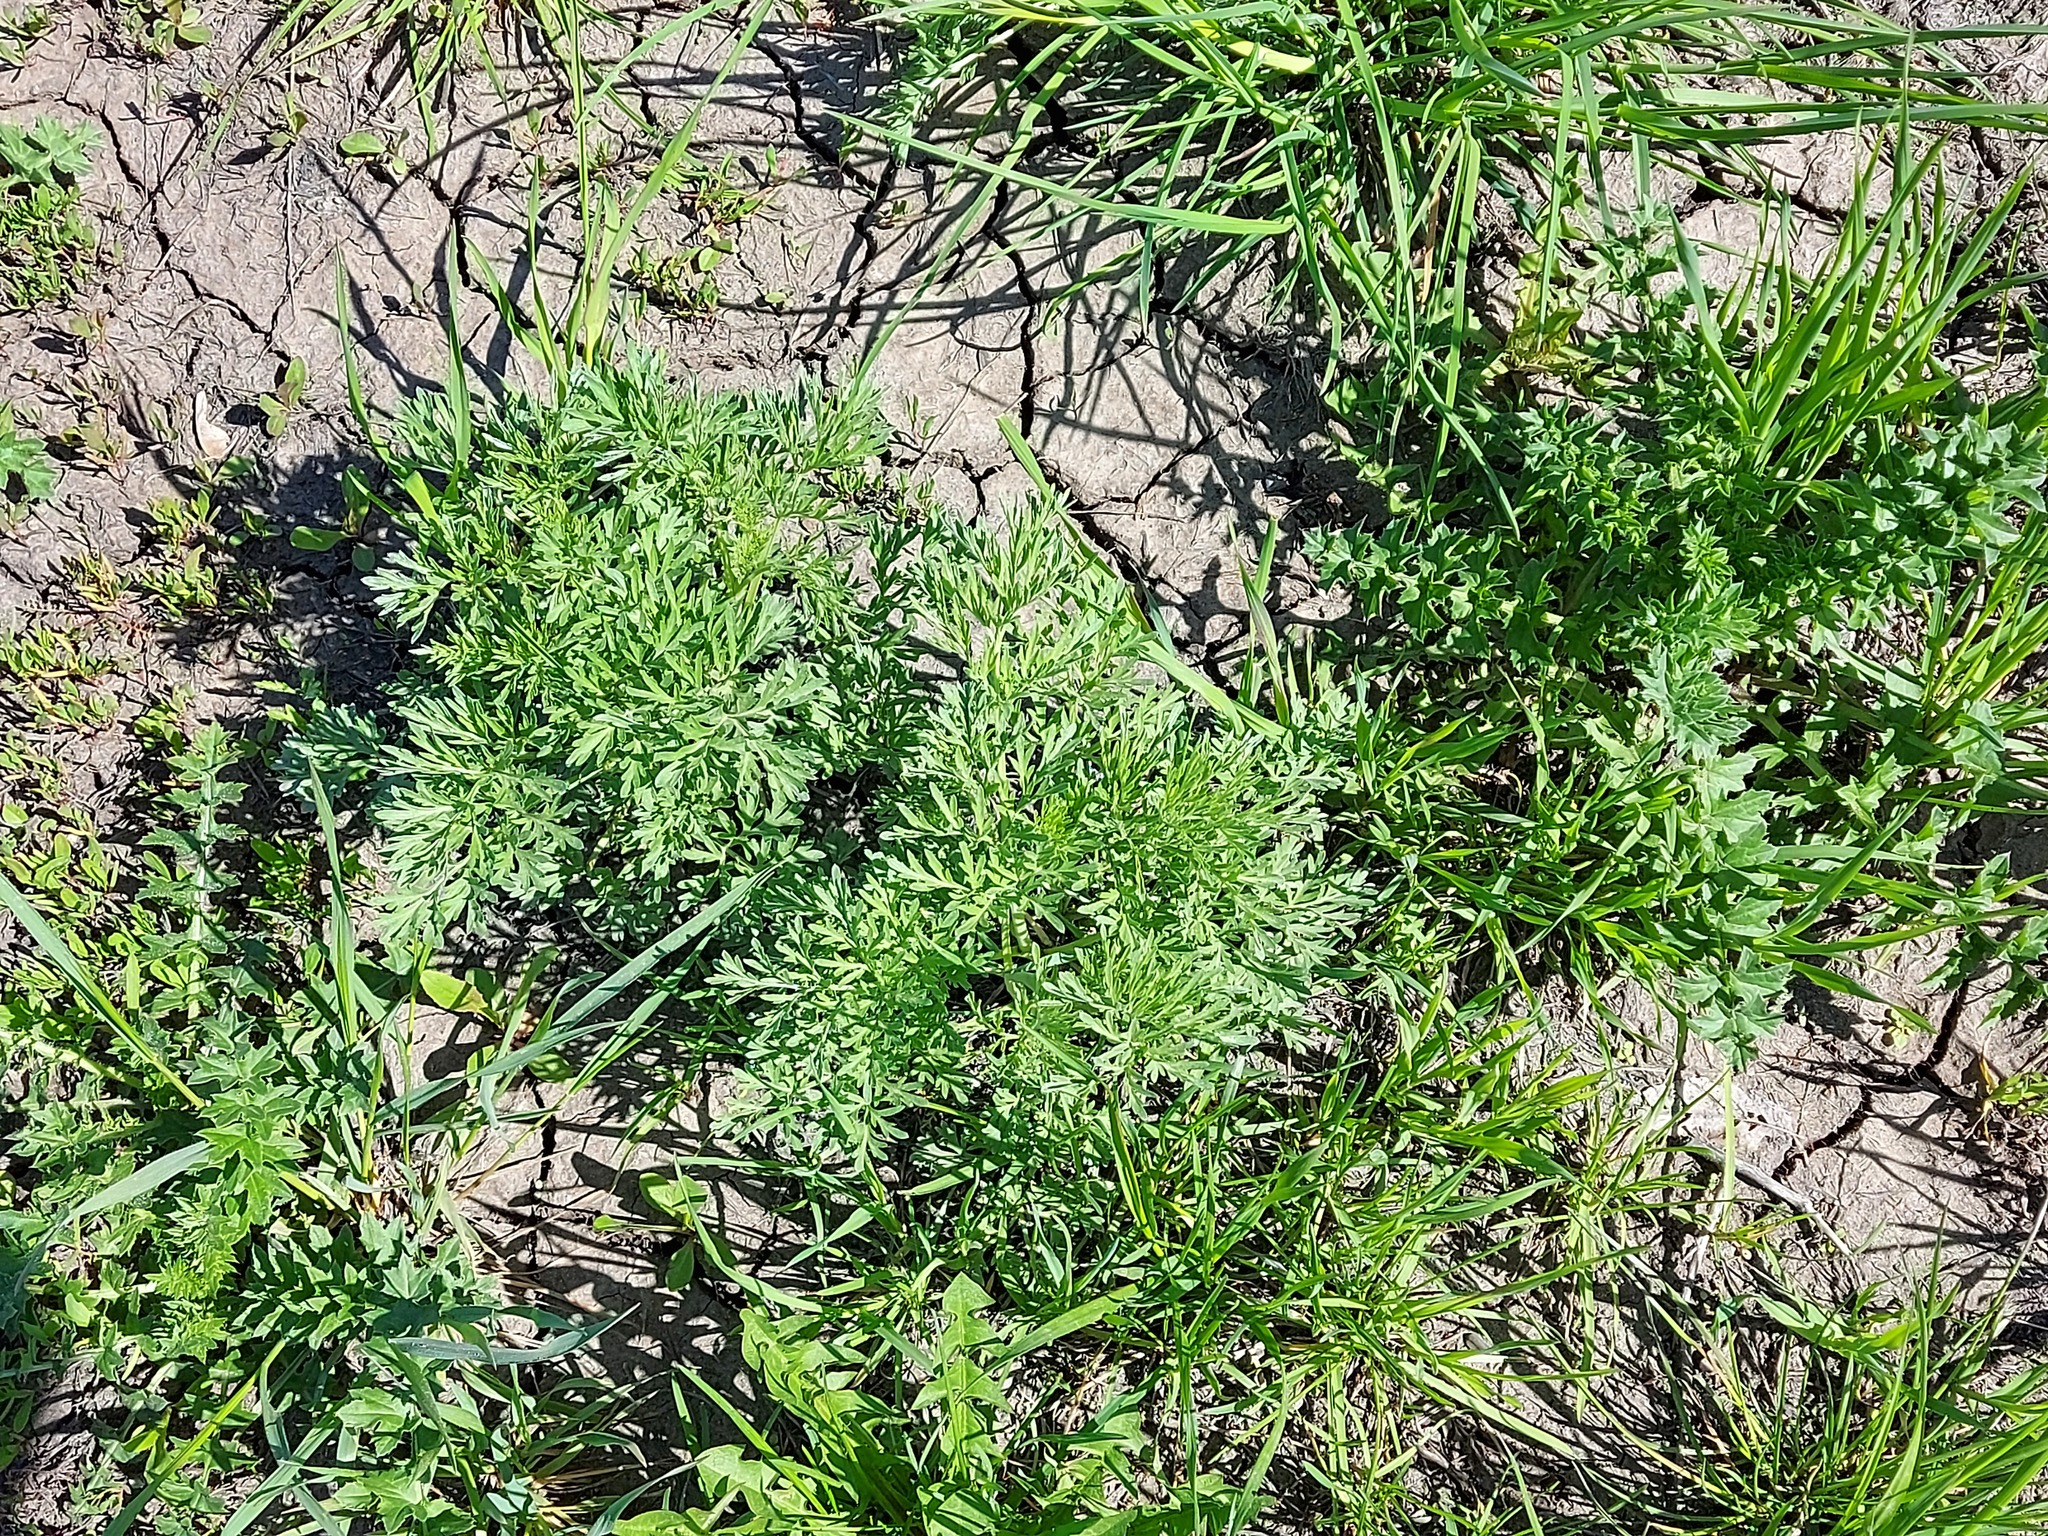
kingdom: Plantae
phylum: Tracheophyta
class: Magnoliopsida
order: Asterales
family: Asteraceae
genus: Artemisia
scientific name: Artemisia absinthium
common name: Wormwood
